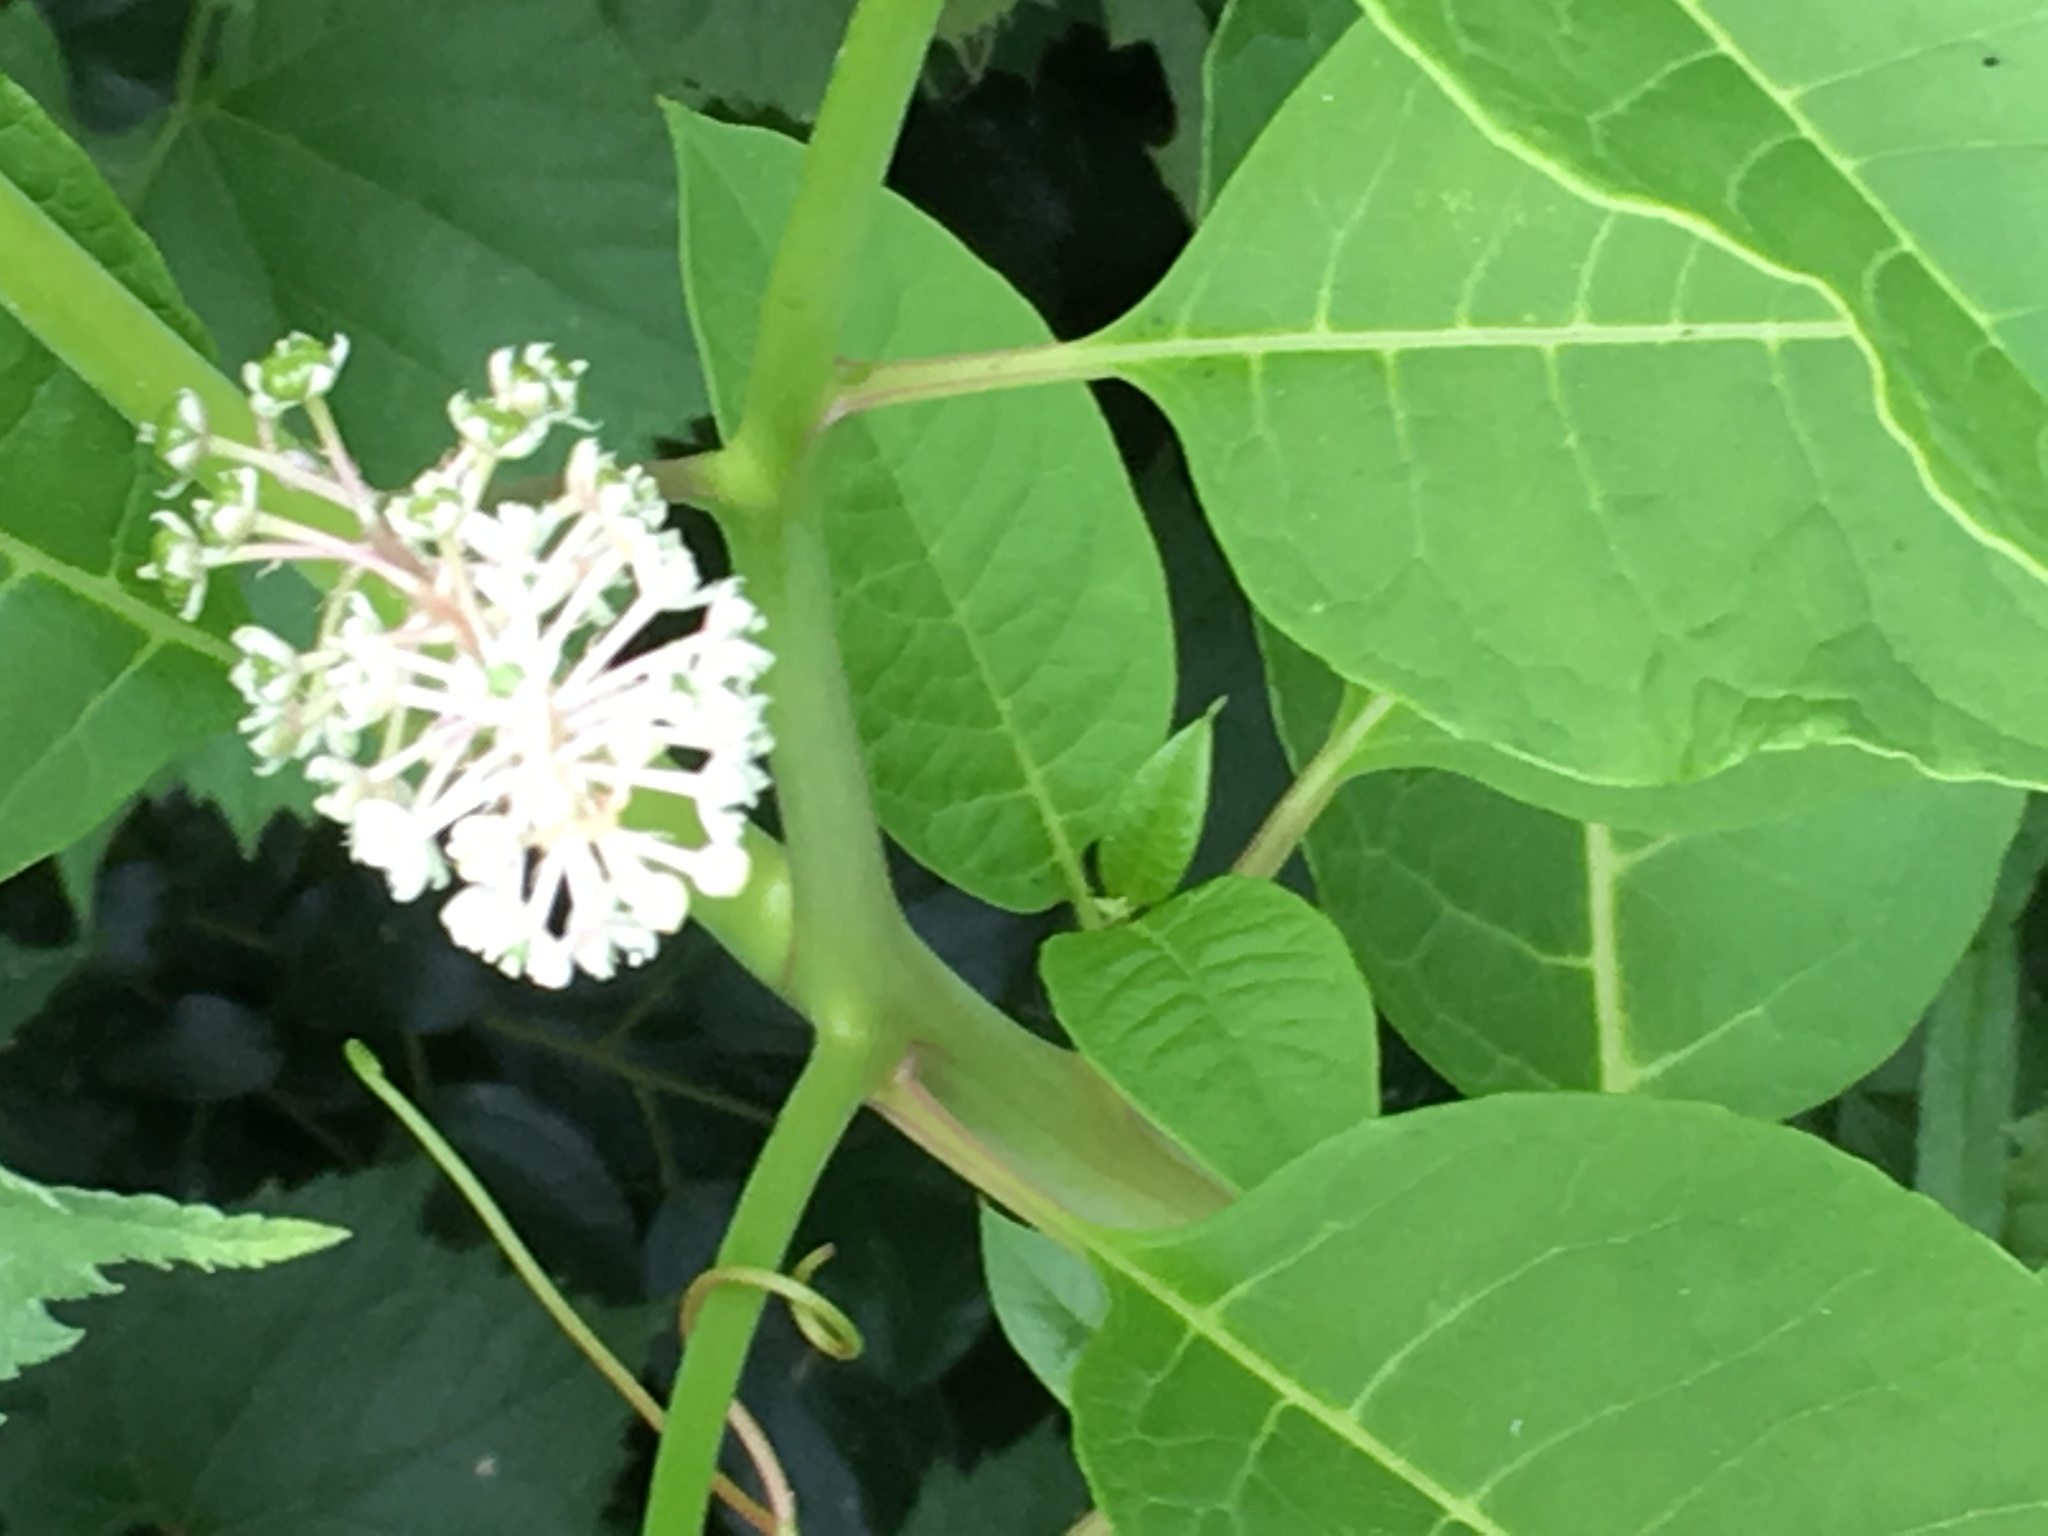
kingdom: Plantae
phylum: Tracheophyta
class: Magnoliopsida
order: Caryophyllales
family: Phytolaccaceae
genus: Phytolacca
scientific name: Phytolacca americana
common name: American pokeweed
